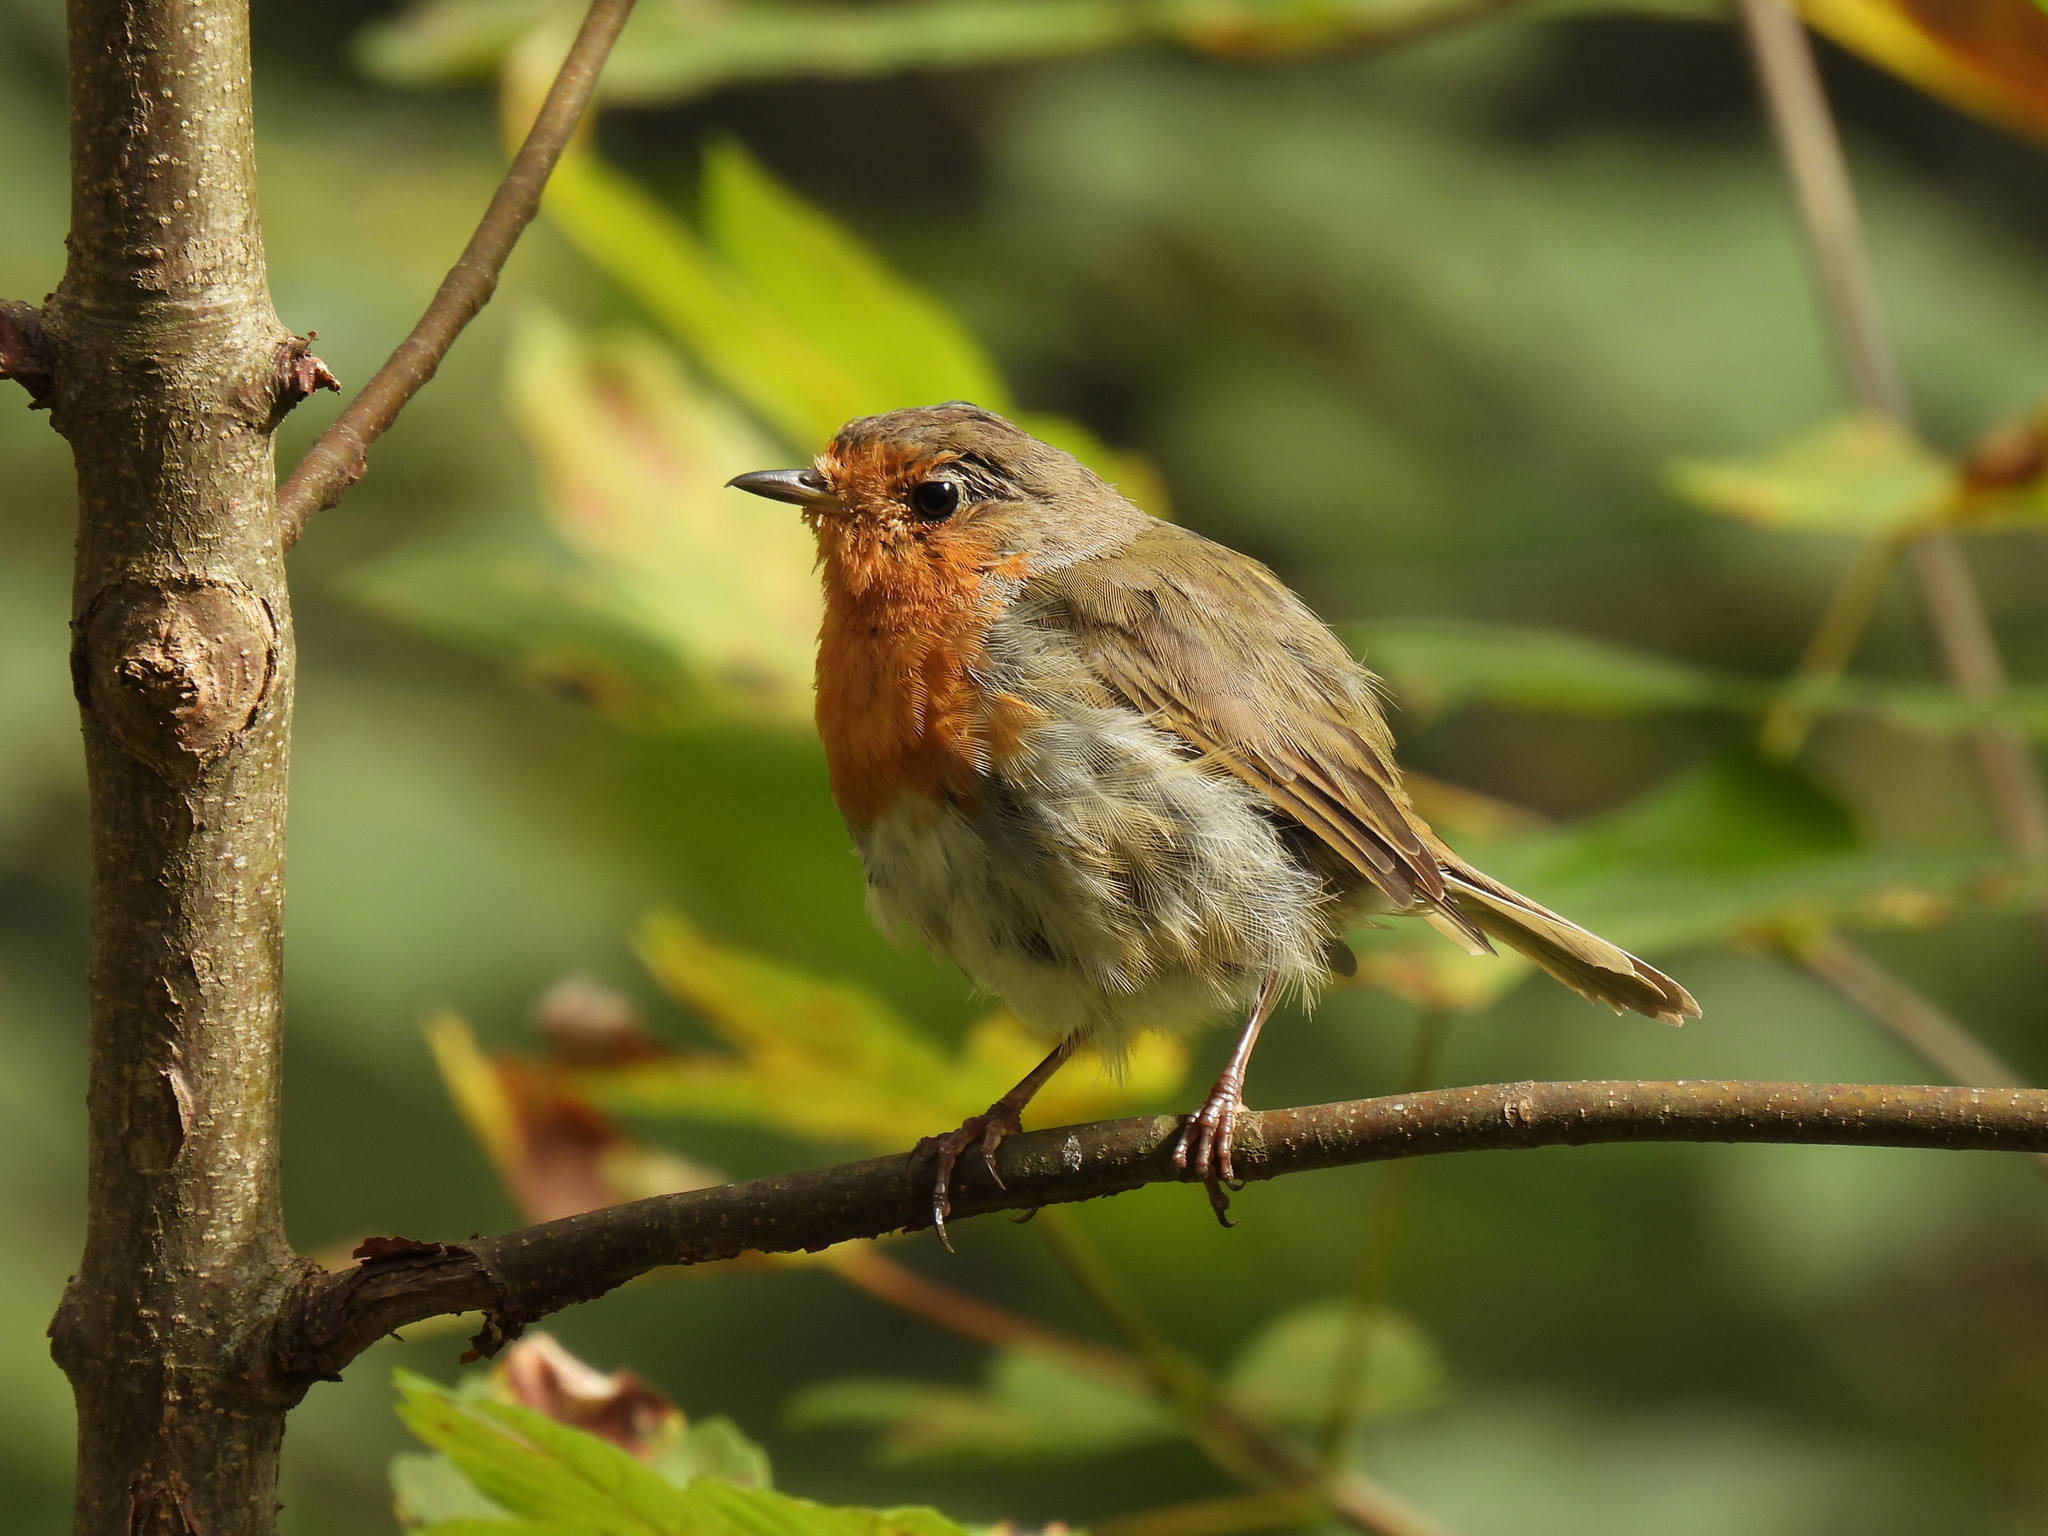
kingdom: Animalia
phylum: Chordata
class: Aves
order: Passeriformes
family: Muscicapidae
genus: Erithacus
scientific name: Erithacus rubecula
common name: European robin
